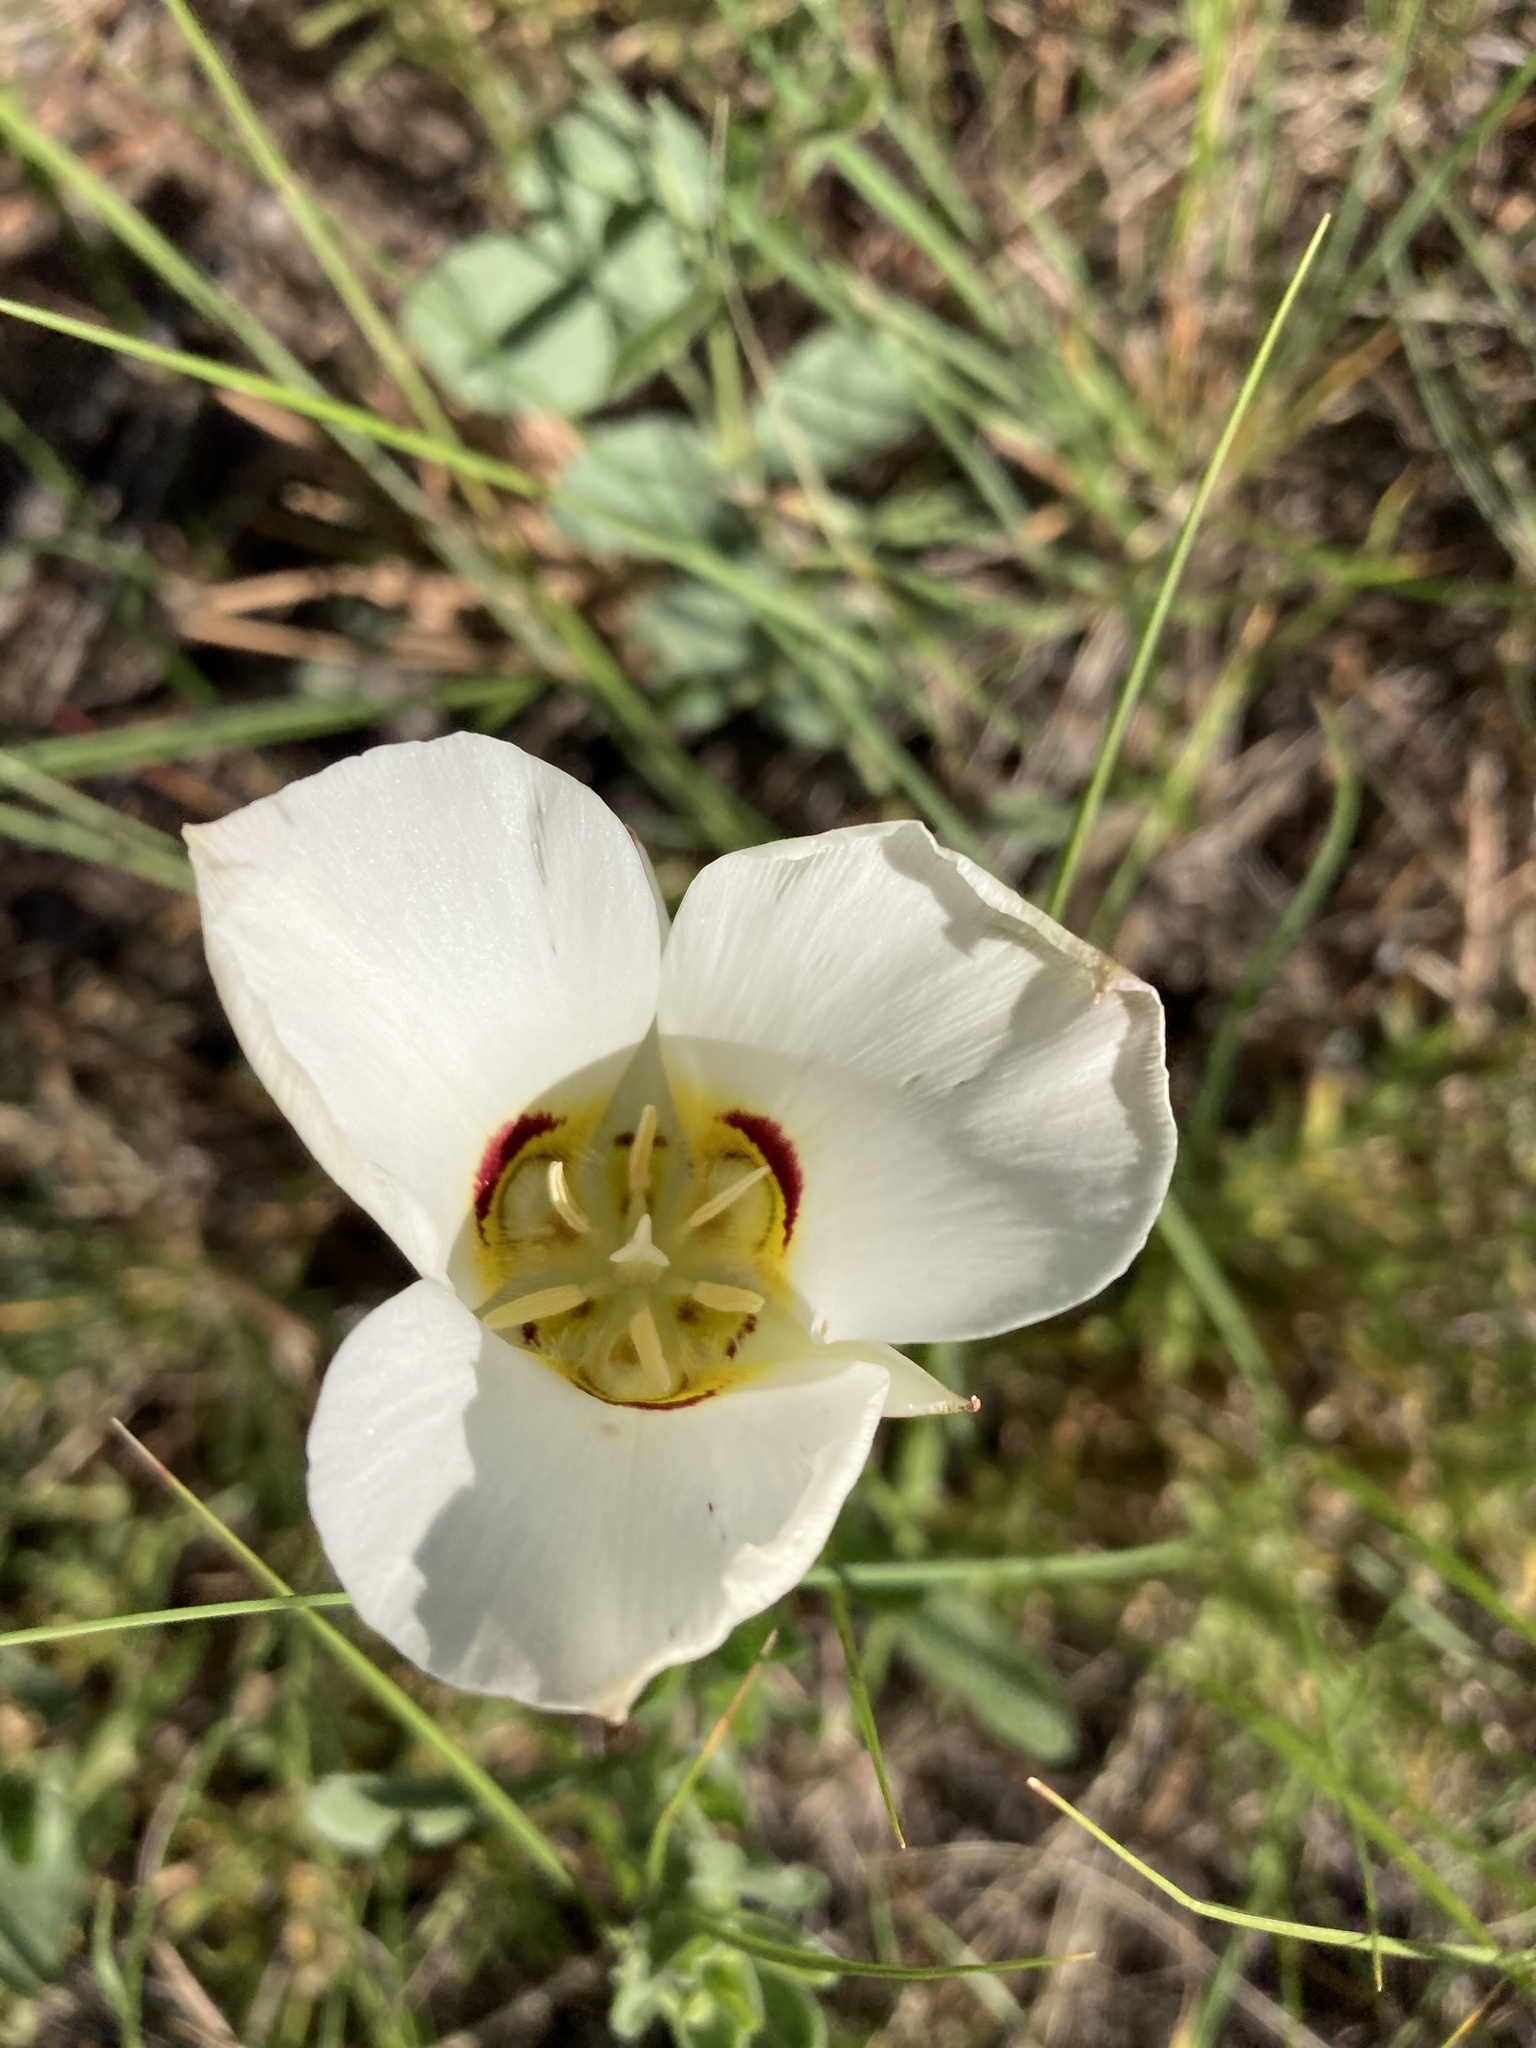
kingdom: Plantae
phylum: Tracheophyta
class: Liliopsida
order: Liliales
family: Liliaceae
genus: Calochortus
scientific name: Calochortus nuttallii
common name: Sego-lily
